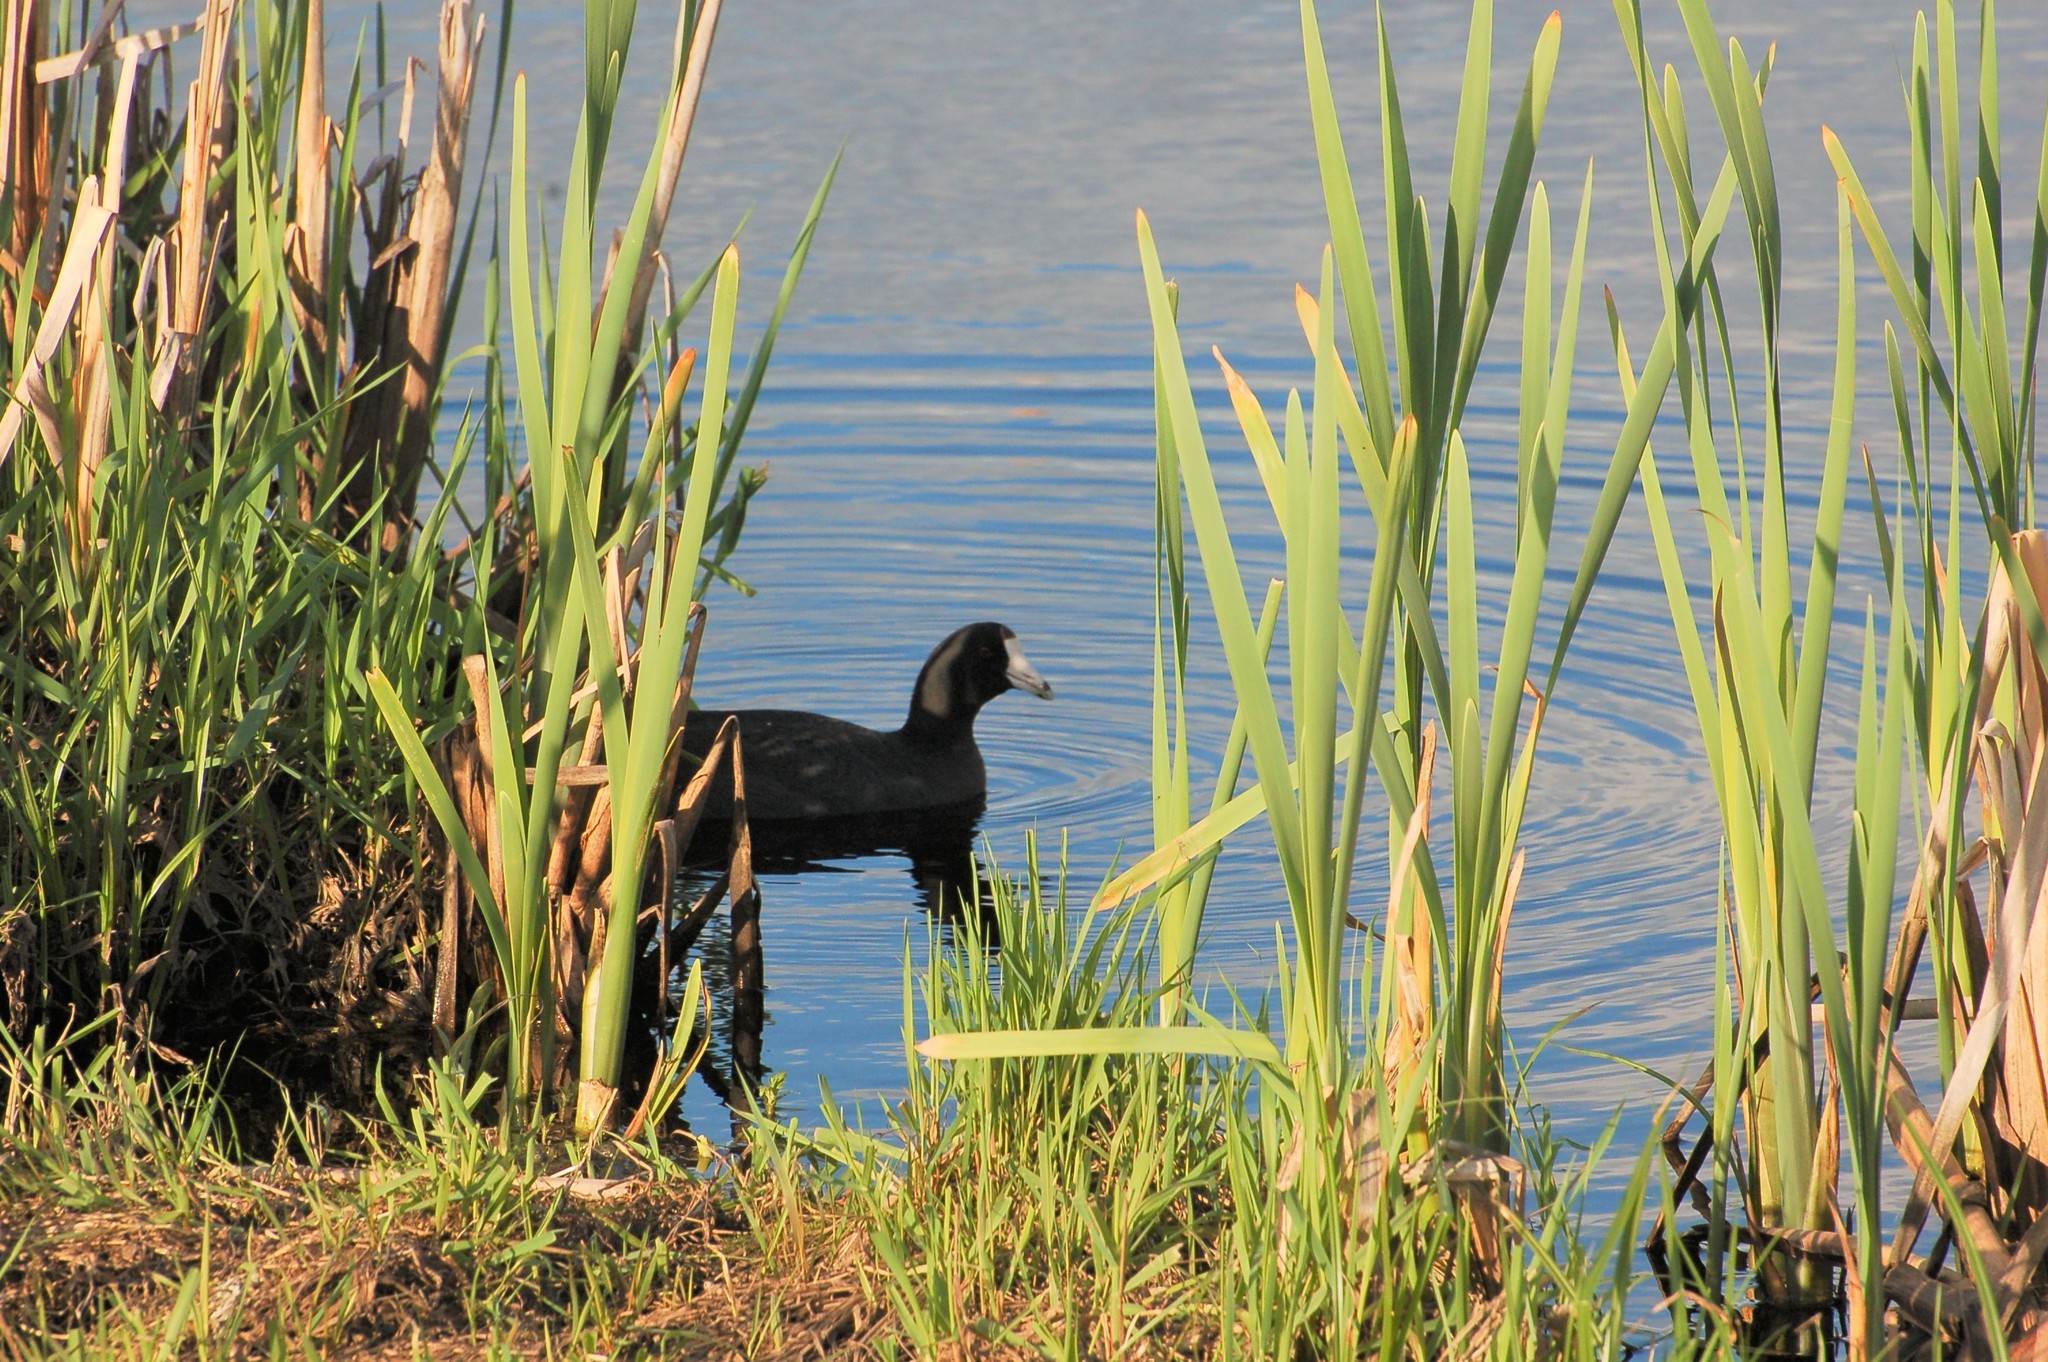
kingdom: Animalia
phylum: Chordata
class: Aves
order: Gruiformes
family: Rallidae
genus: Fulica
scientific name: Fulica americana
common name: American coot
